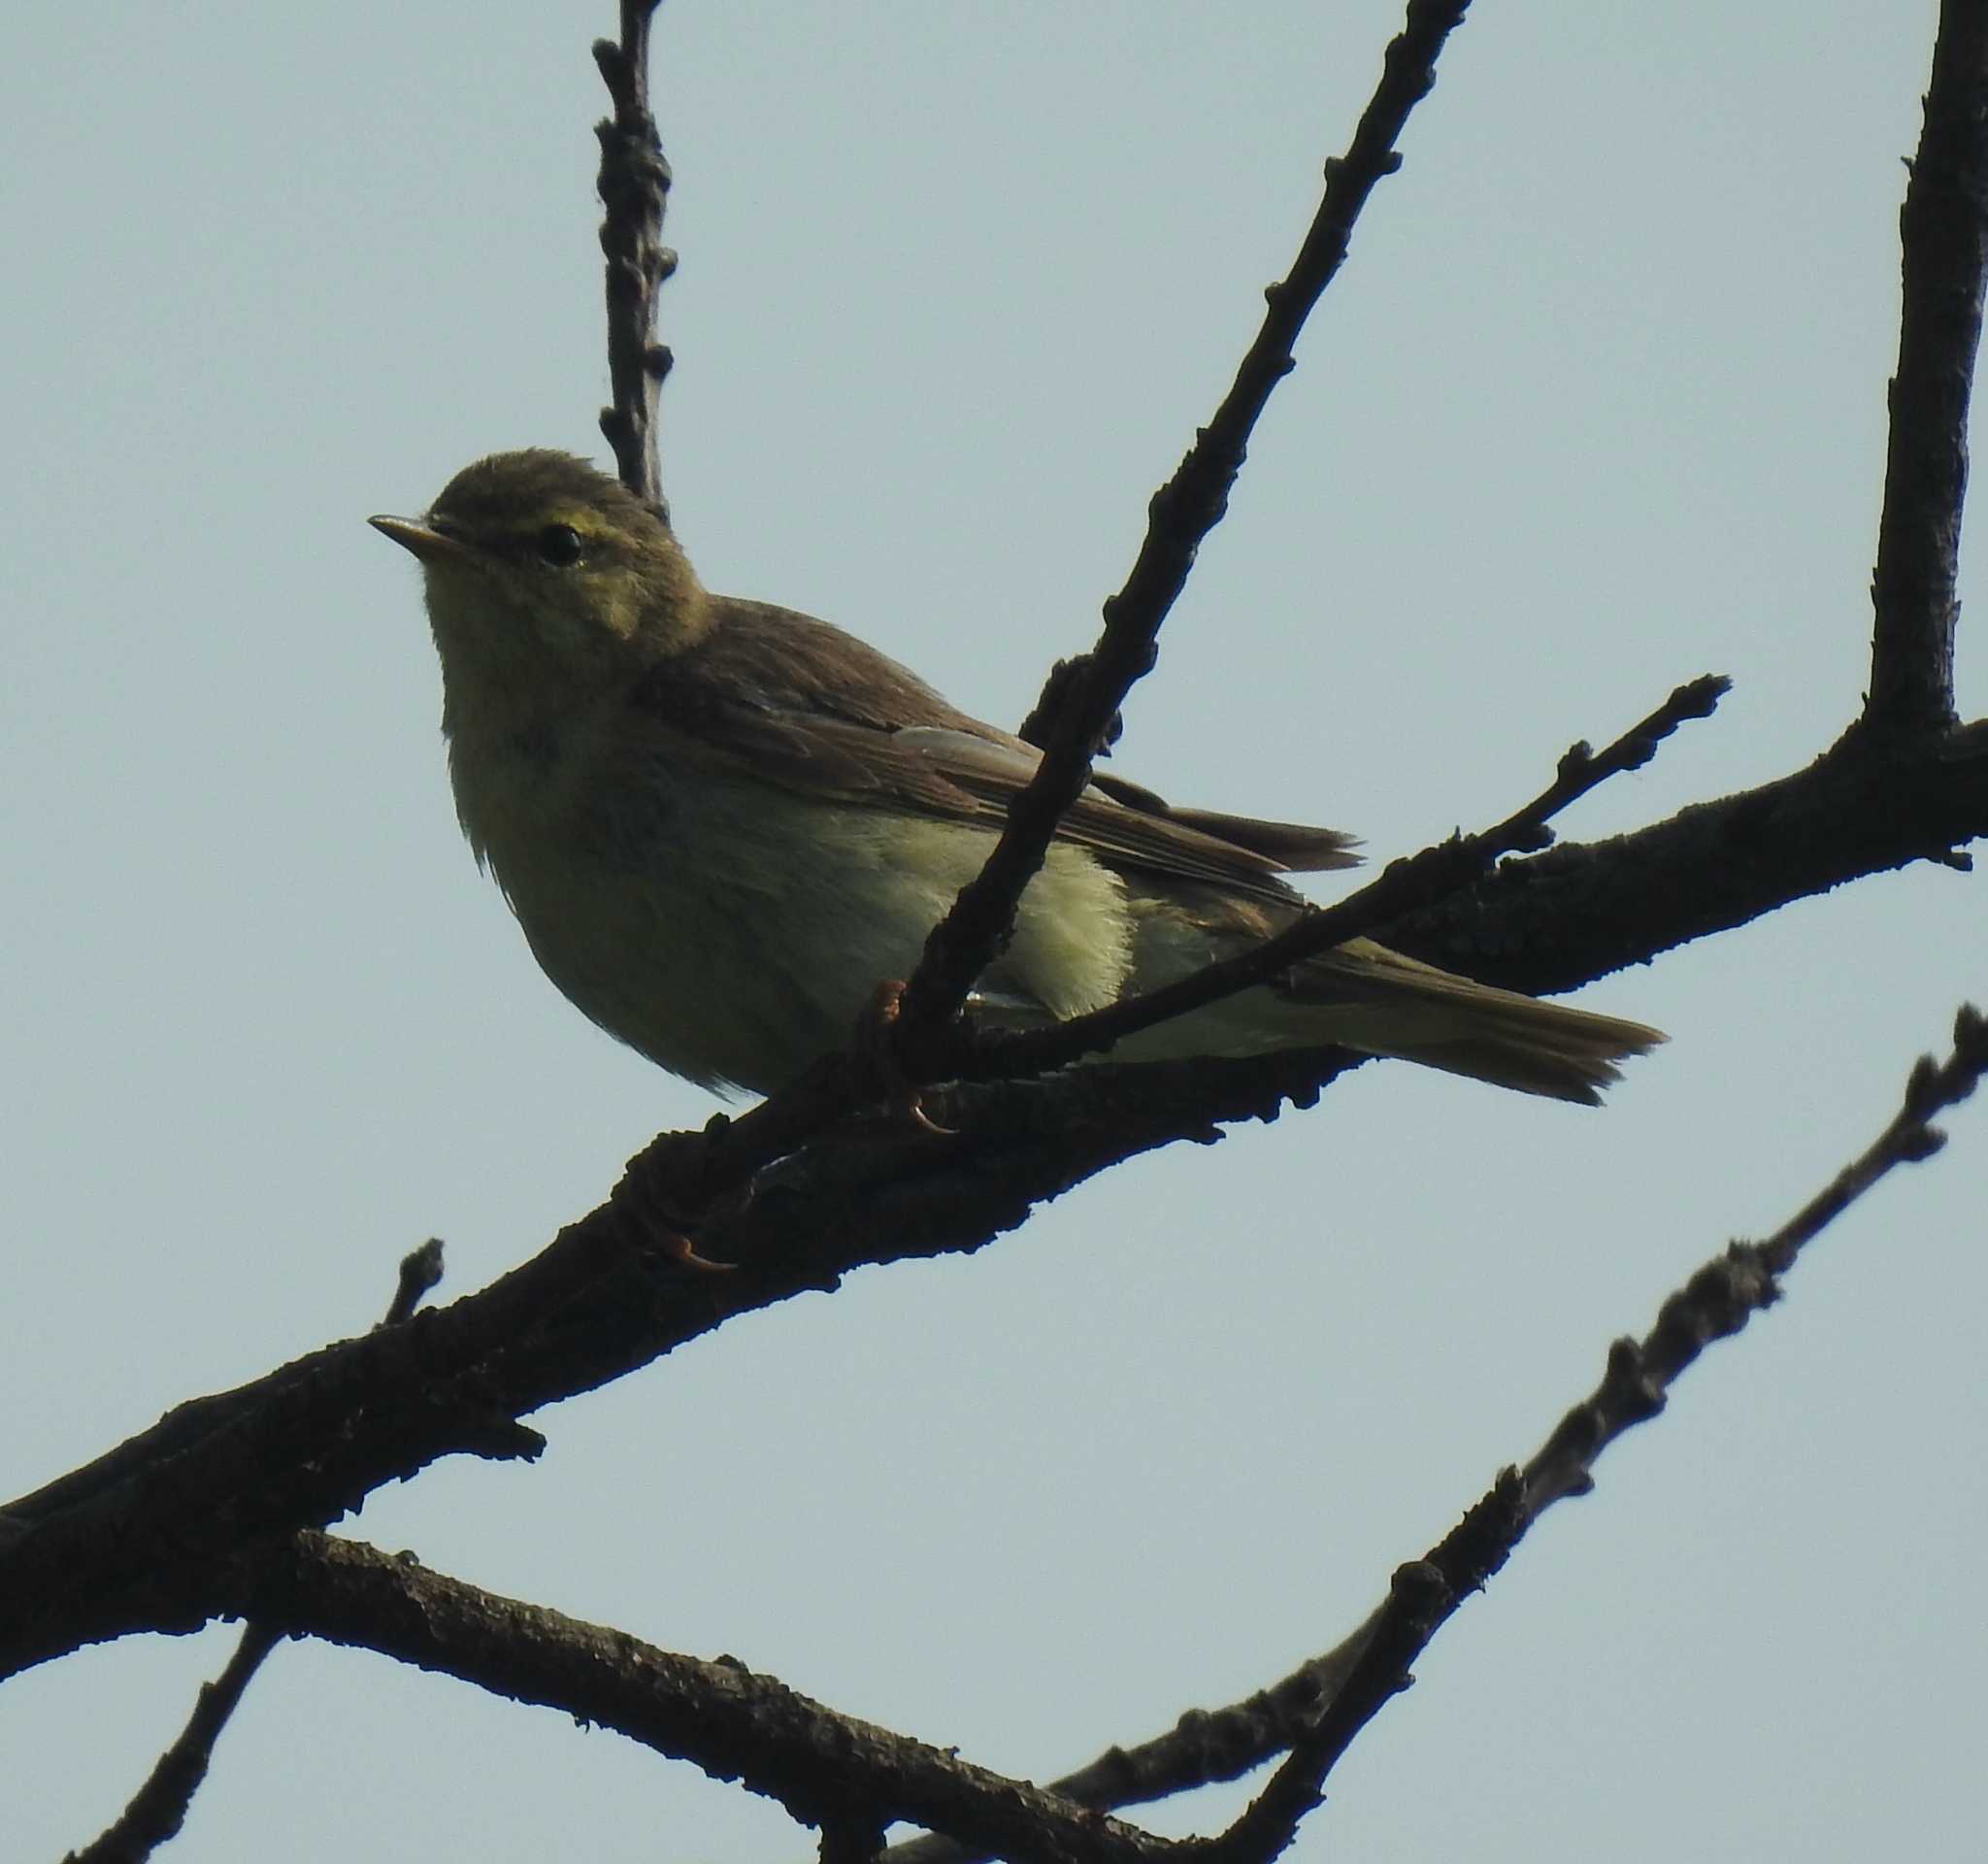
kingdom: Animalia
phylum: Chordata
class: Aves
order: Passeriformes
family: Phylloscopidae
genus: Phylloscopus
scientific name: Phylloscopus trochilus
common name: Willow warbler
